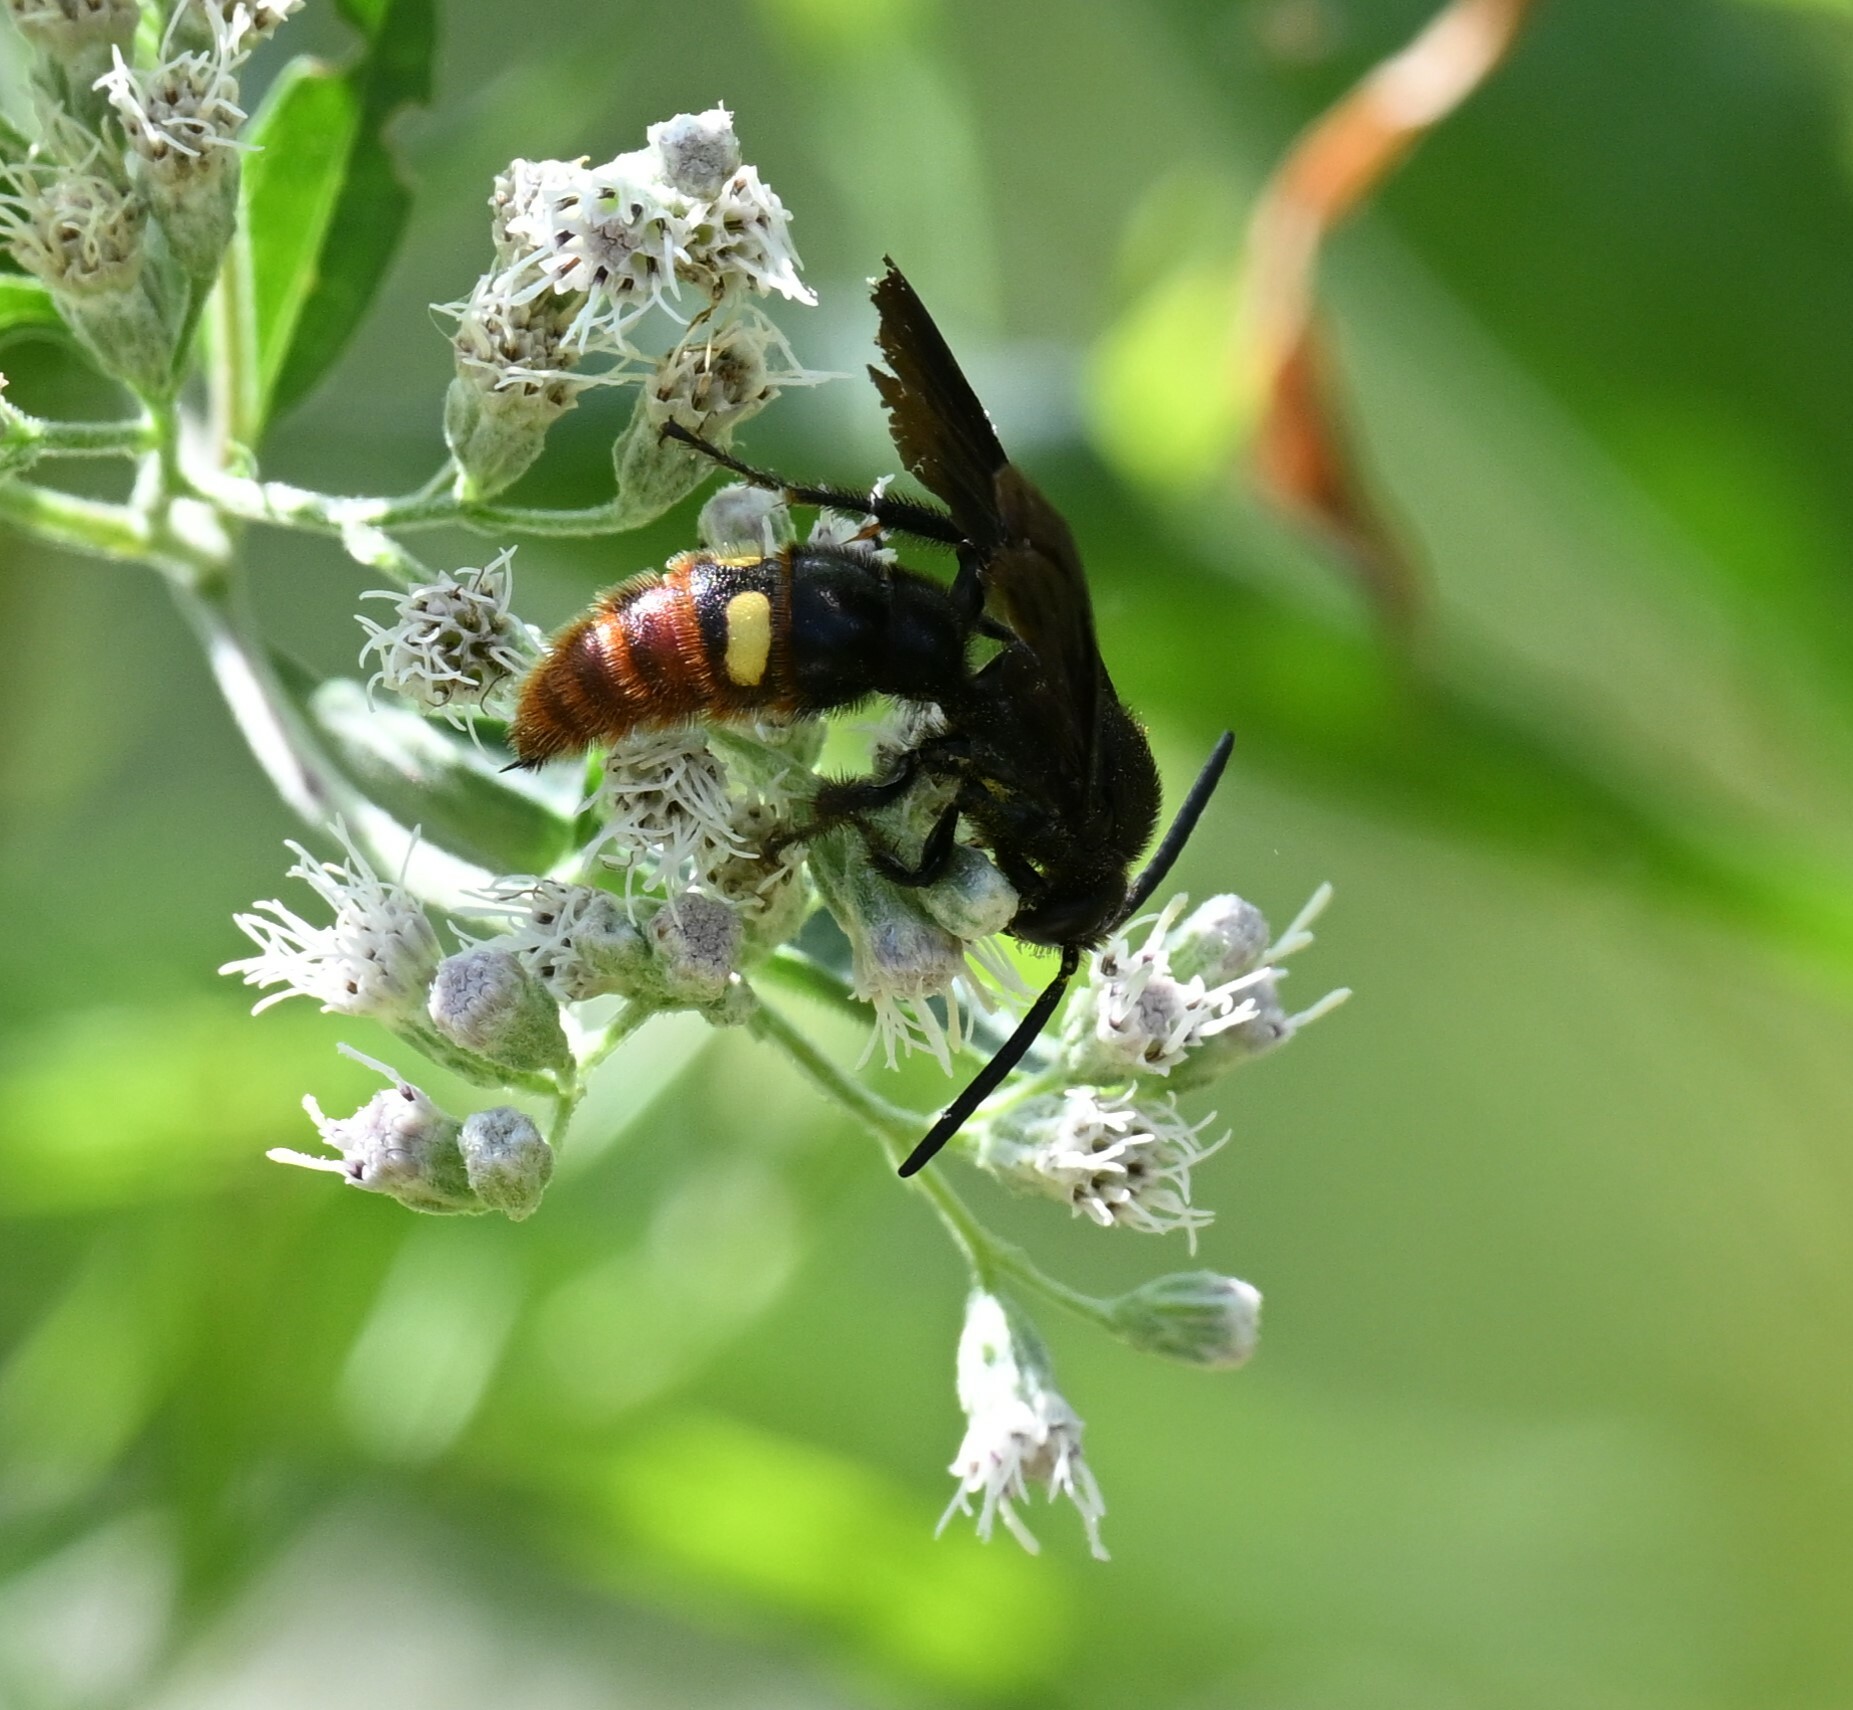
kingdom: Animalia
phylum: Arthropoda
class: Insecta
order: Hymenoptera
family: Scoliidae
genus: Scolia
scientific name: Scolia dubia
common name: Blue-winged scoliid wasp
